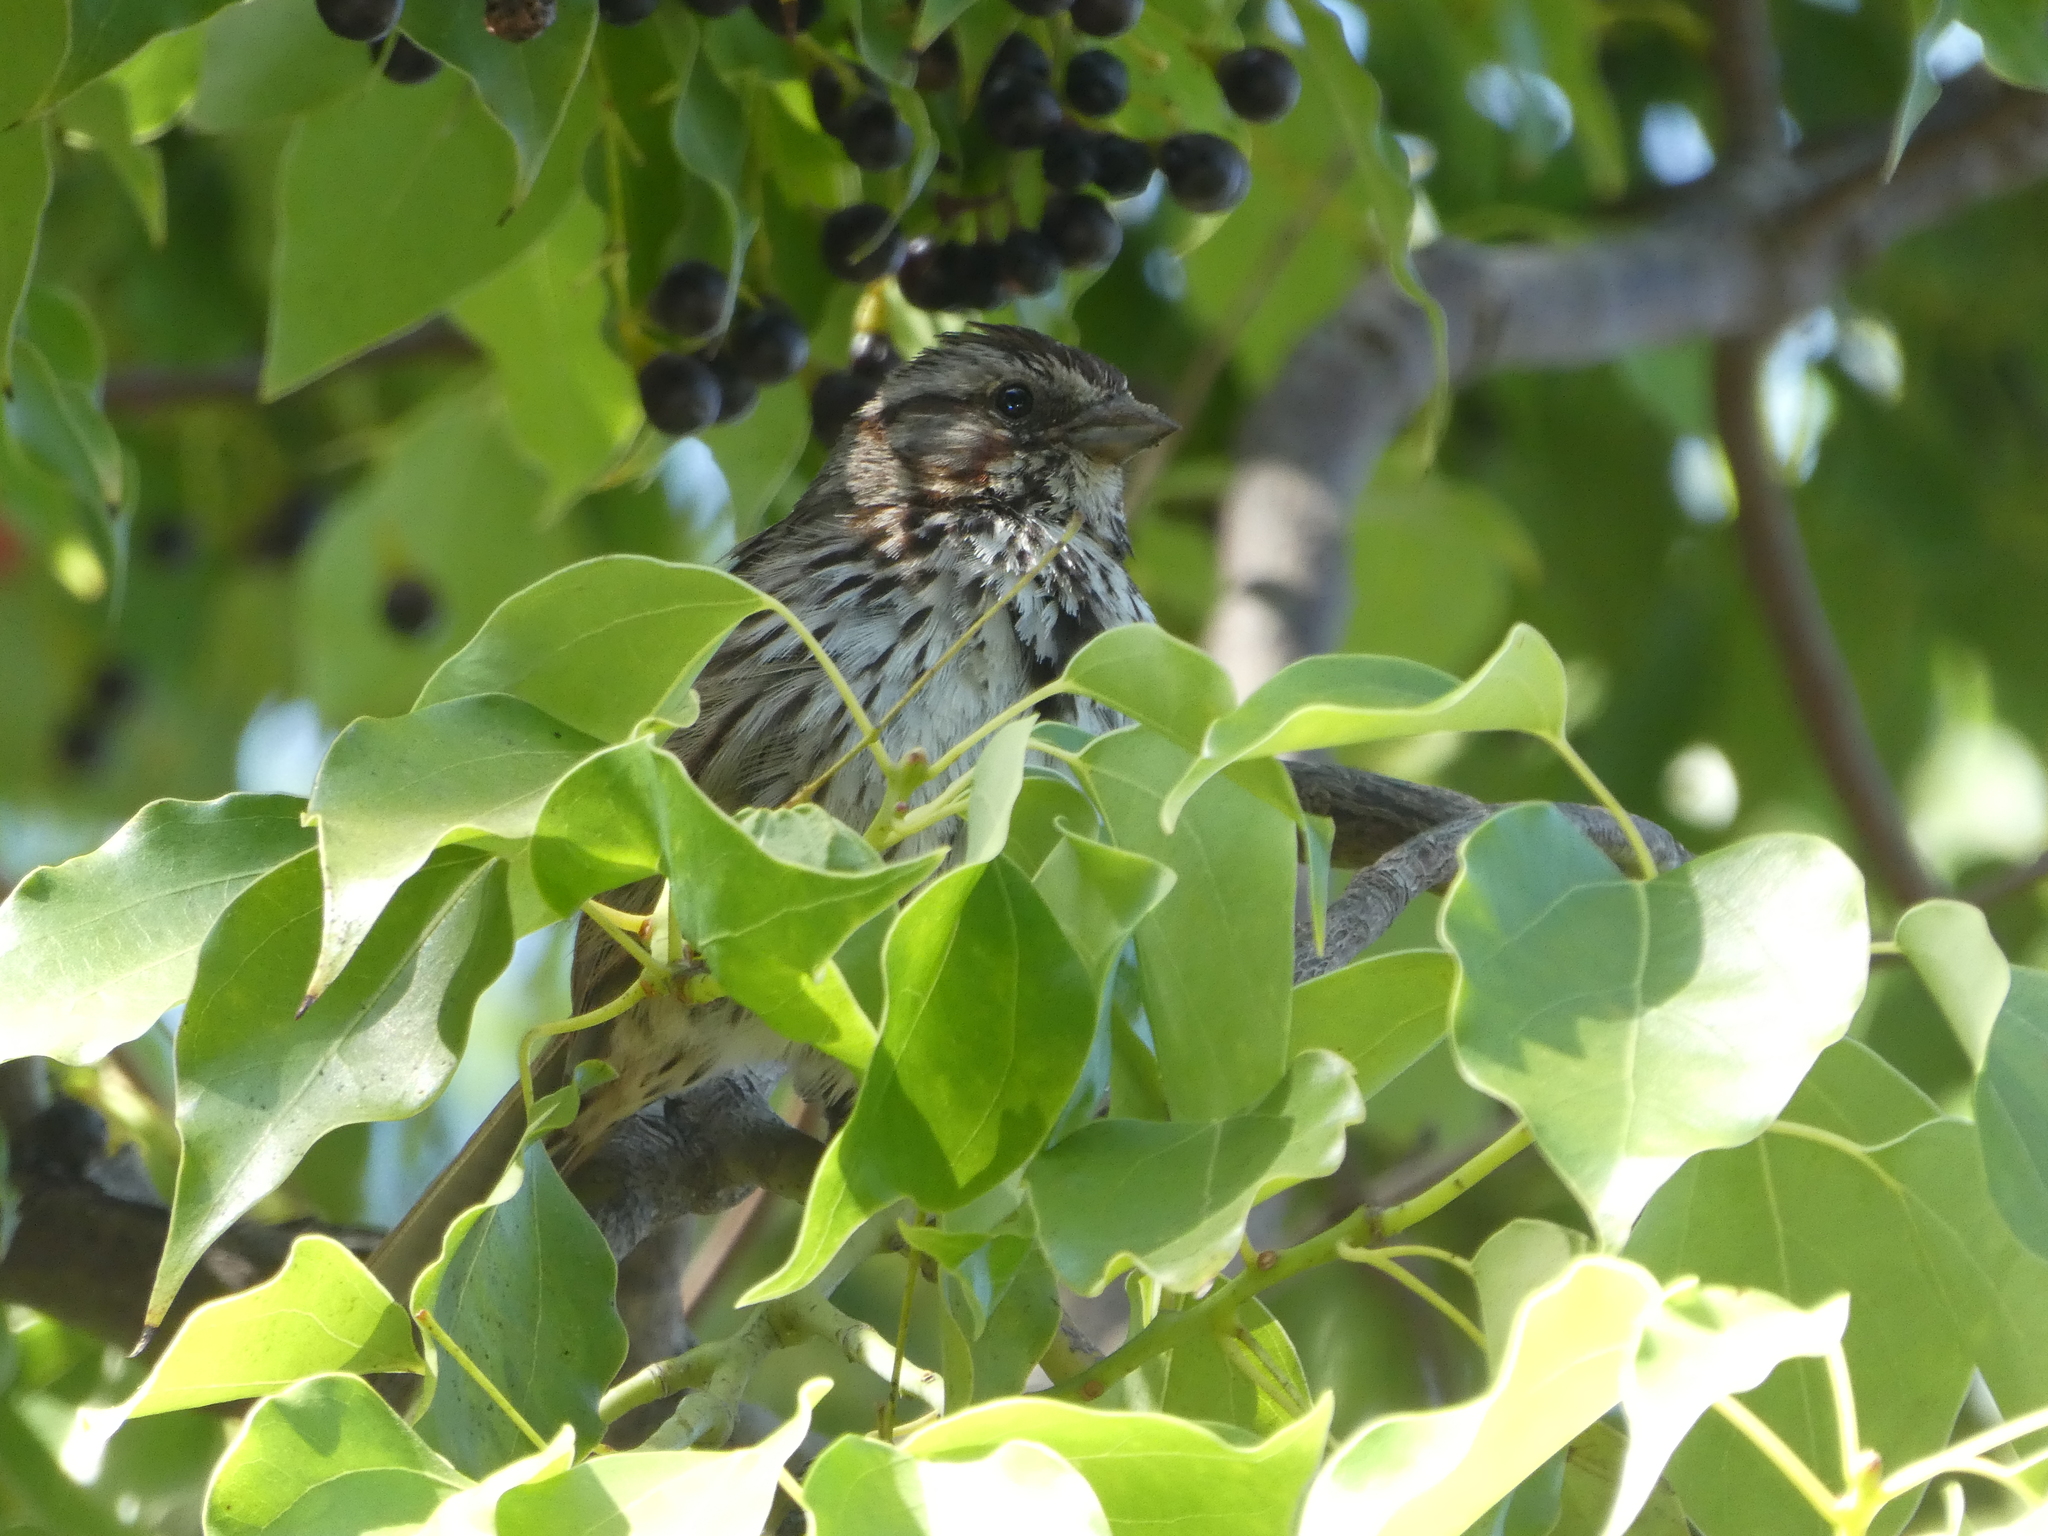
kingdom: Animalia
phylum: Chordata
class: Aves
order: Passeriformes
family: Passerellidae
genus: Melospiza
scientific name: Melospiza melodia
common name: Song sparrow
